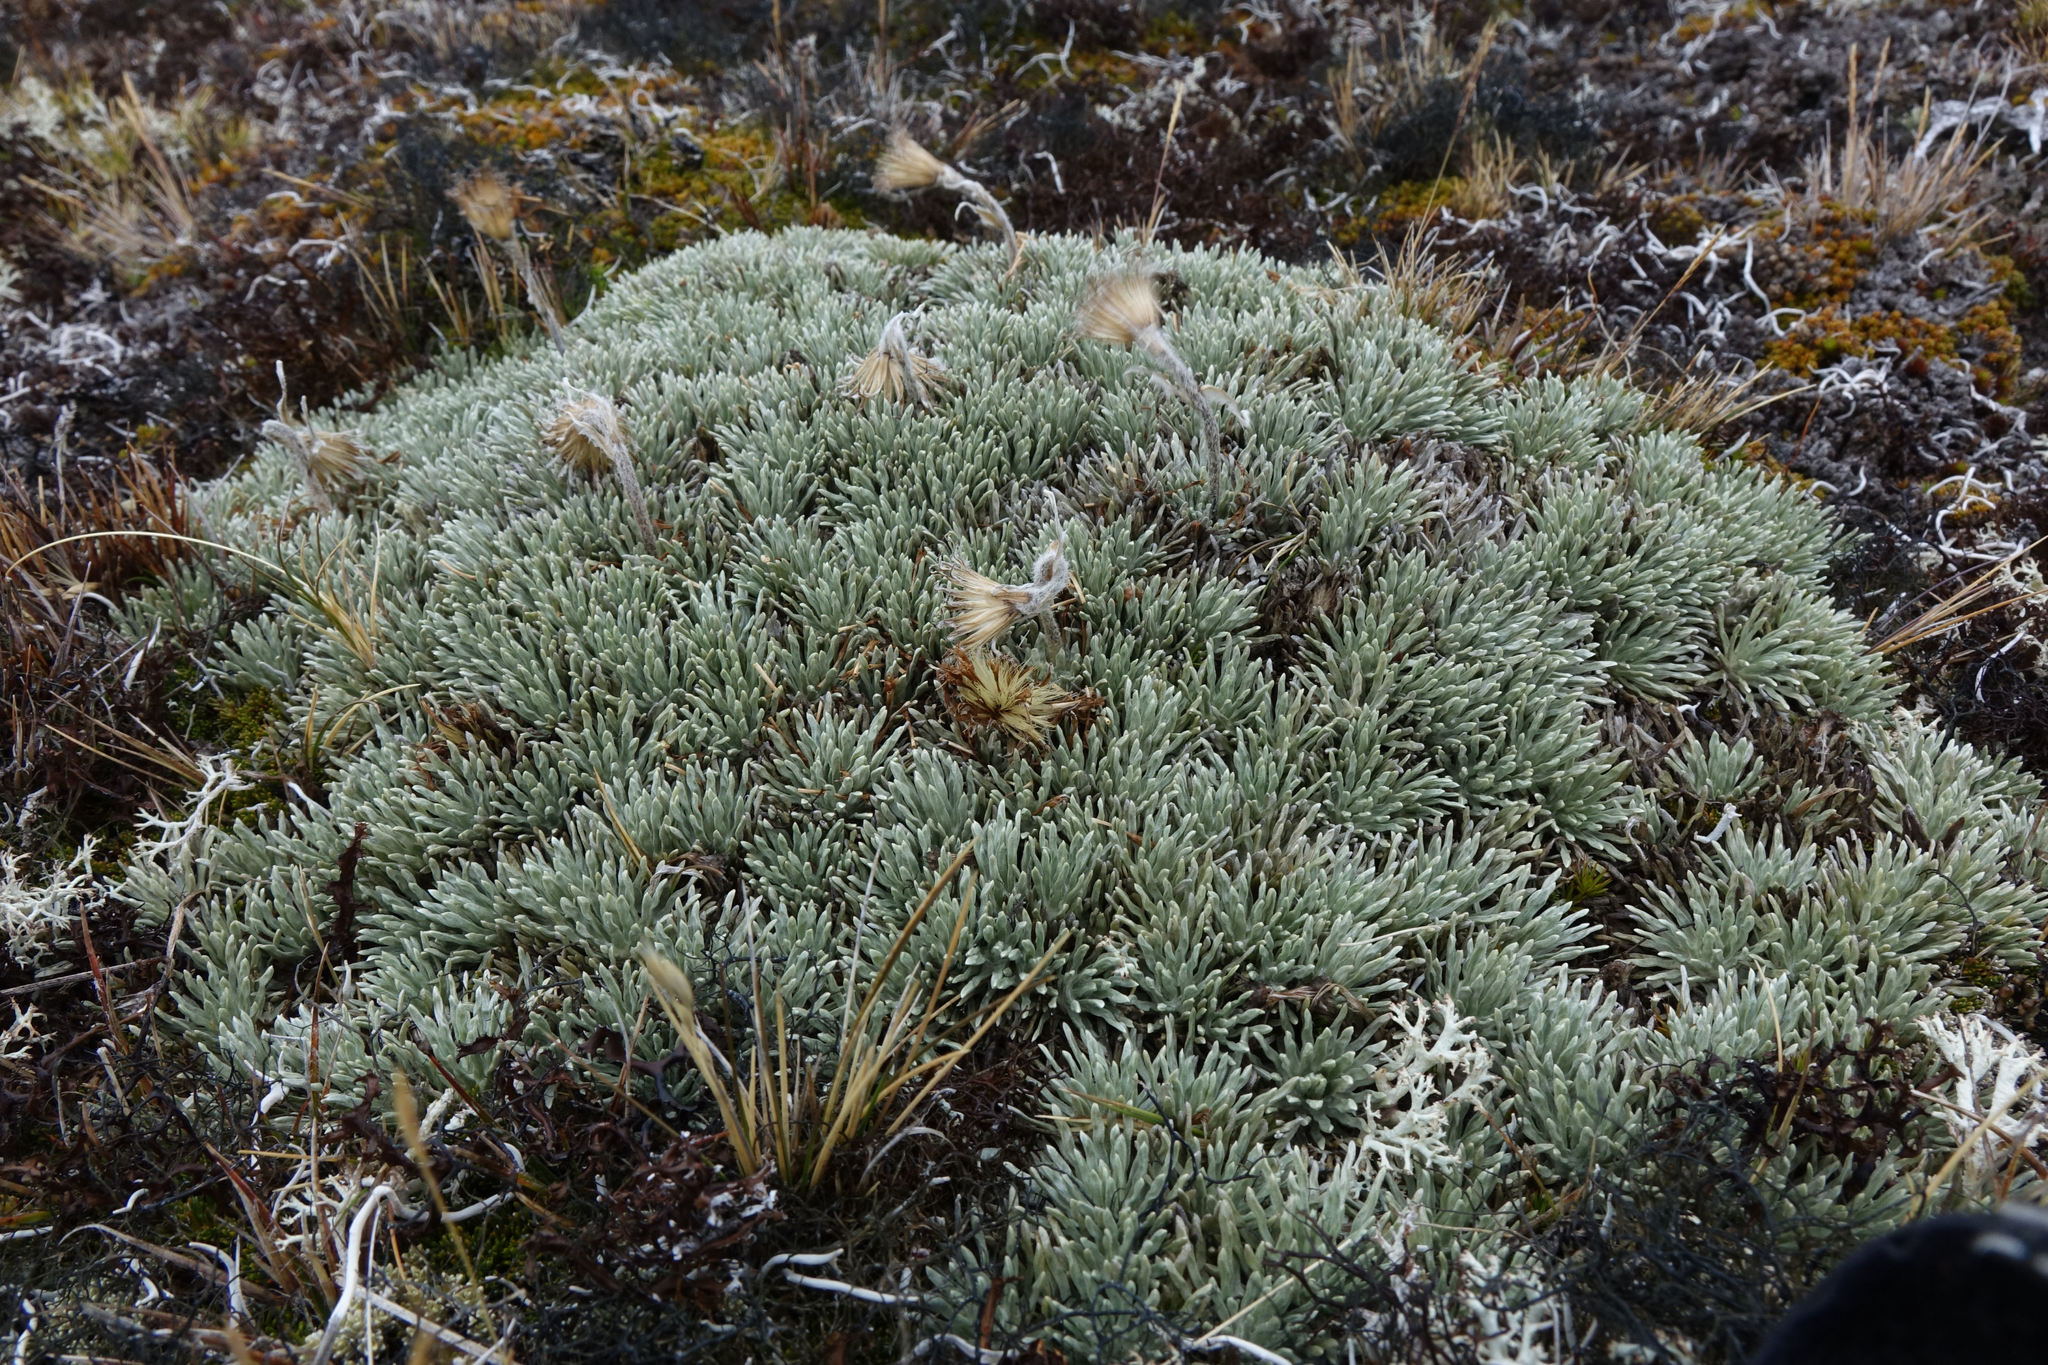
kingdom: Plantae
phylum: Tracheophyta
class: Magnoliopsida
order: Asterales
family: Asteraceae
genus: Celmisia
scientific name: Celmisia sessiliflora
